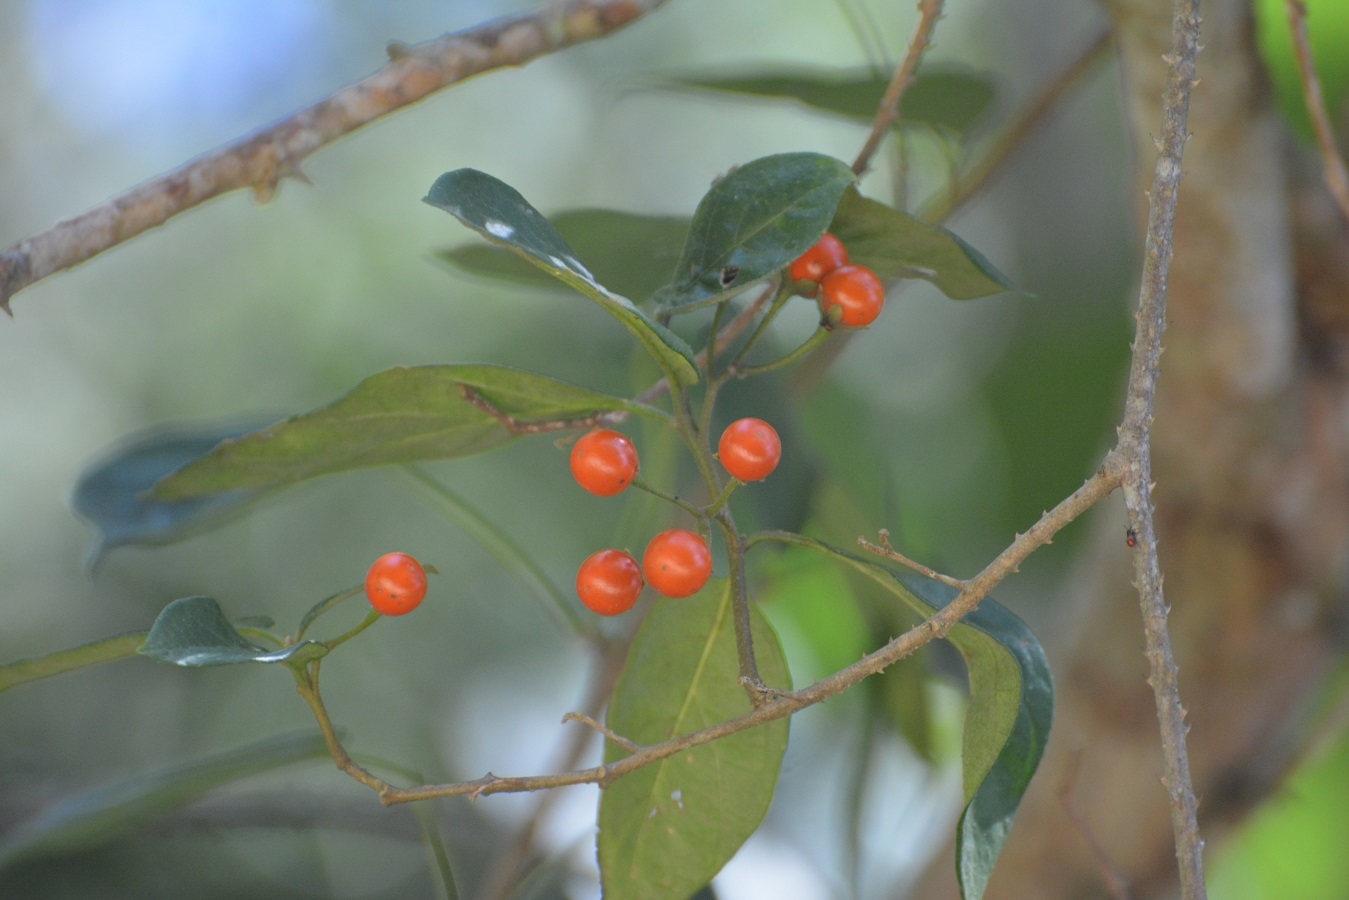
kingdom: Plantae
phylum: Tracheophyta
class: Magnoliopsida
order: Solanales
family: Solanaceae
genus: Solanum
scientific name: Solanum volubile
